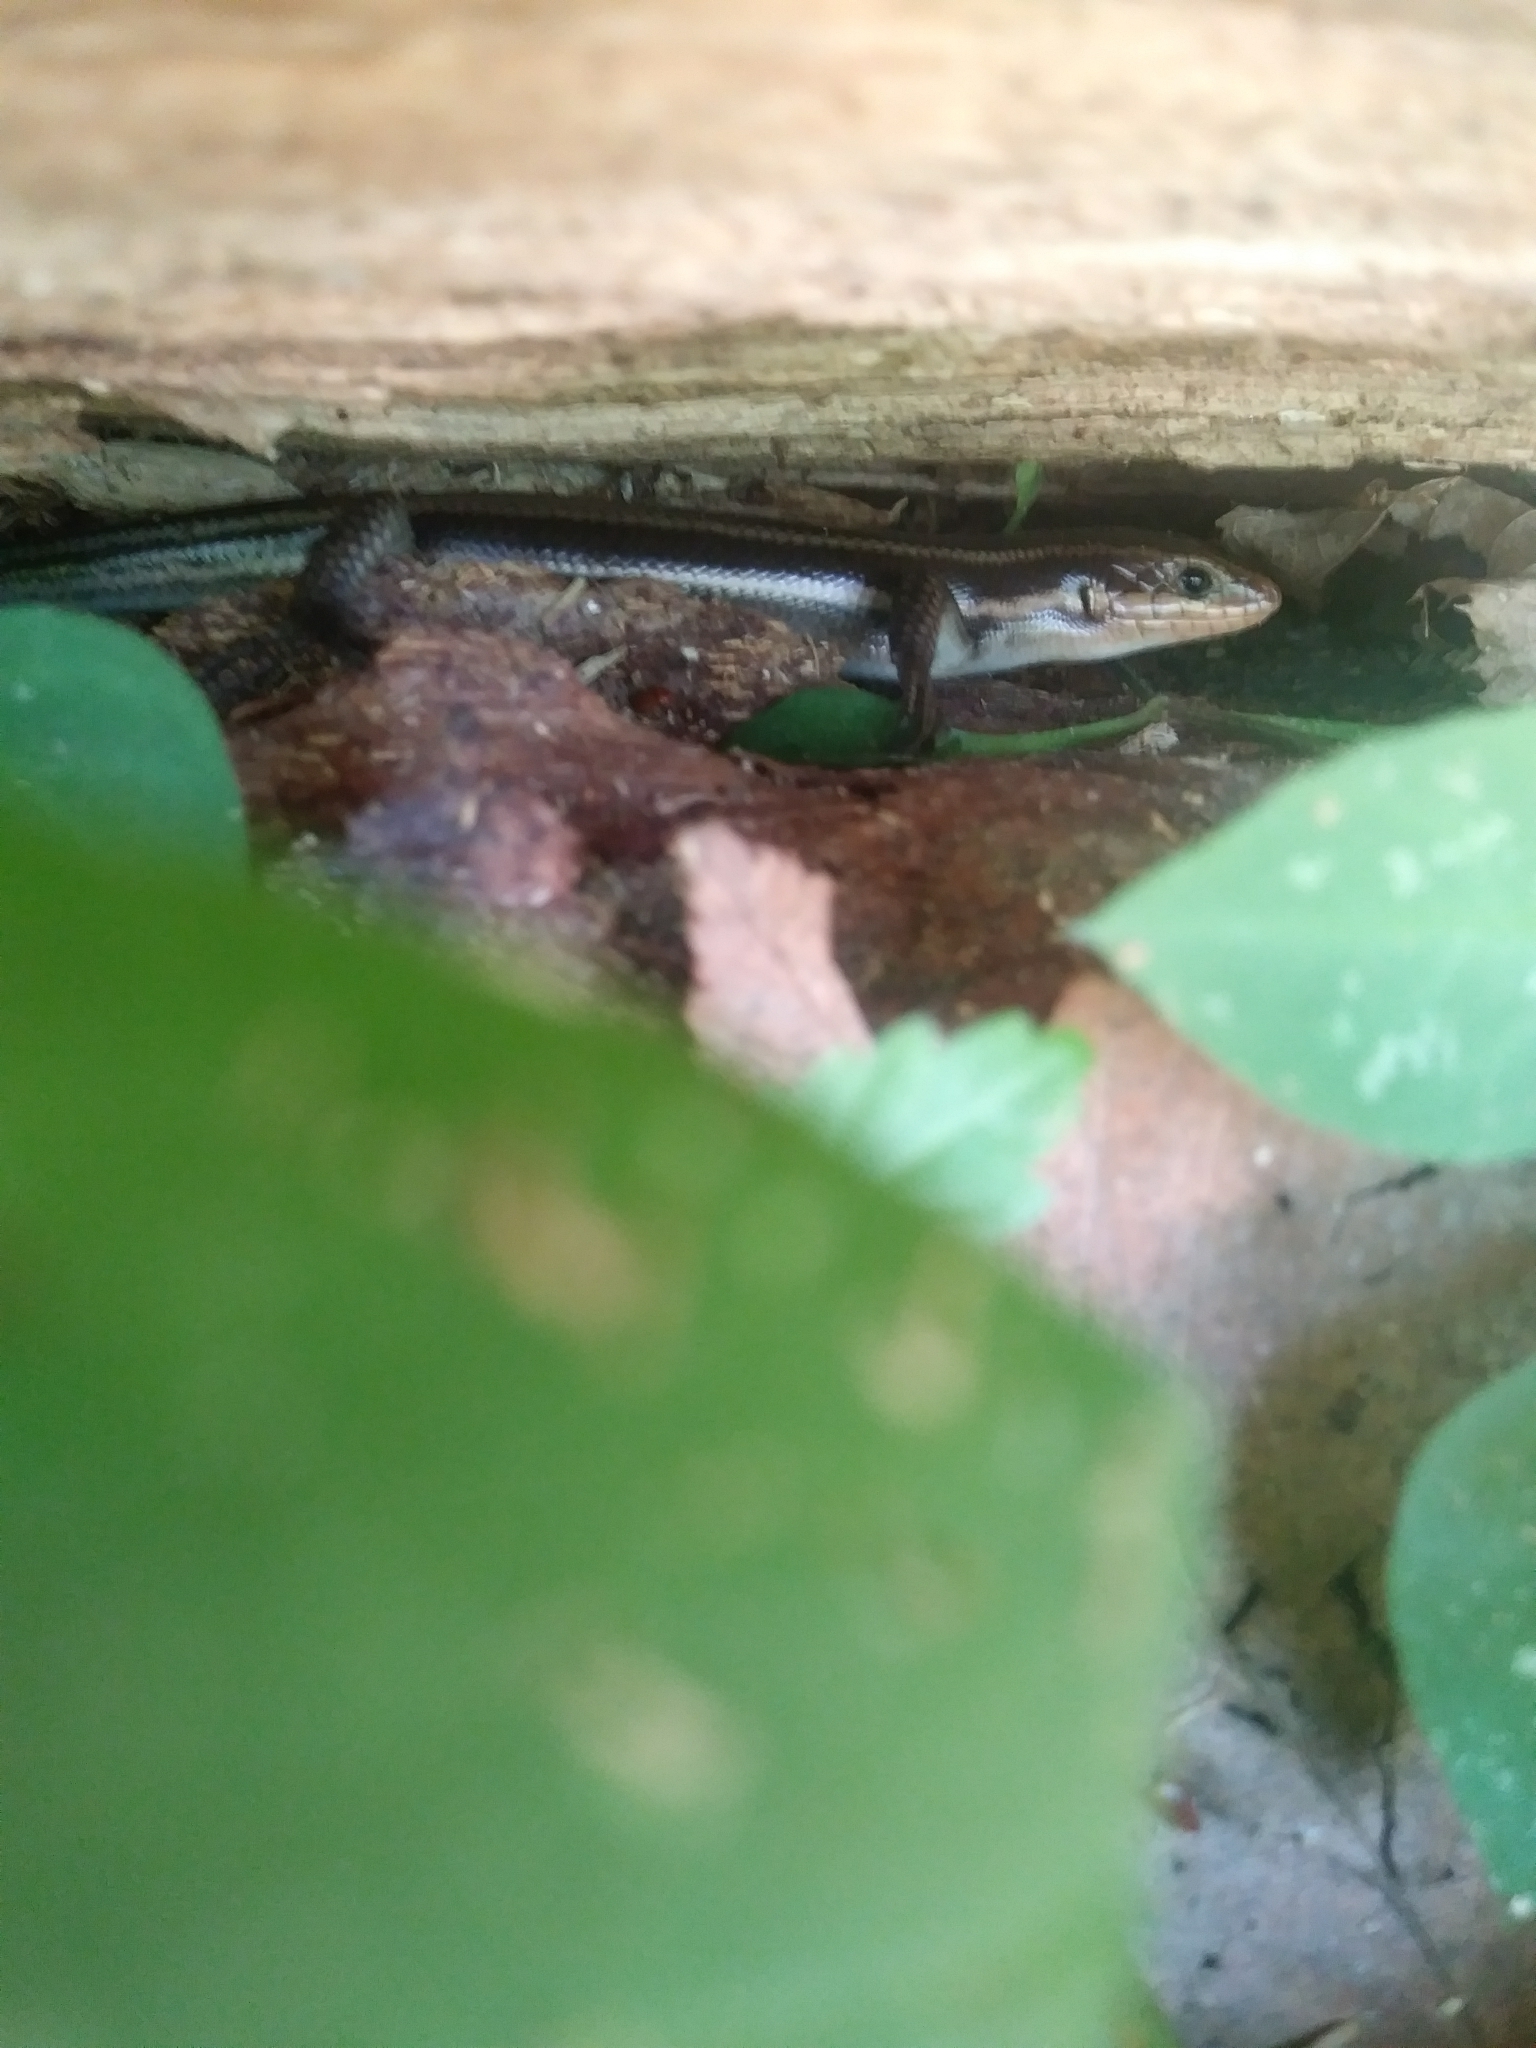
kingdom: Animalia
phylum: Chordata
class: Squamata
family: Scincidae
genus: Plestiodon
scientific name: Plestiodon fasciatus
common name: Five-lined skink
